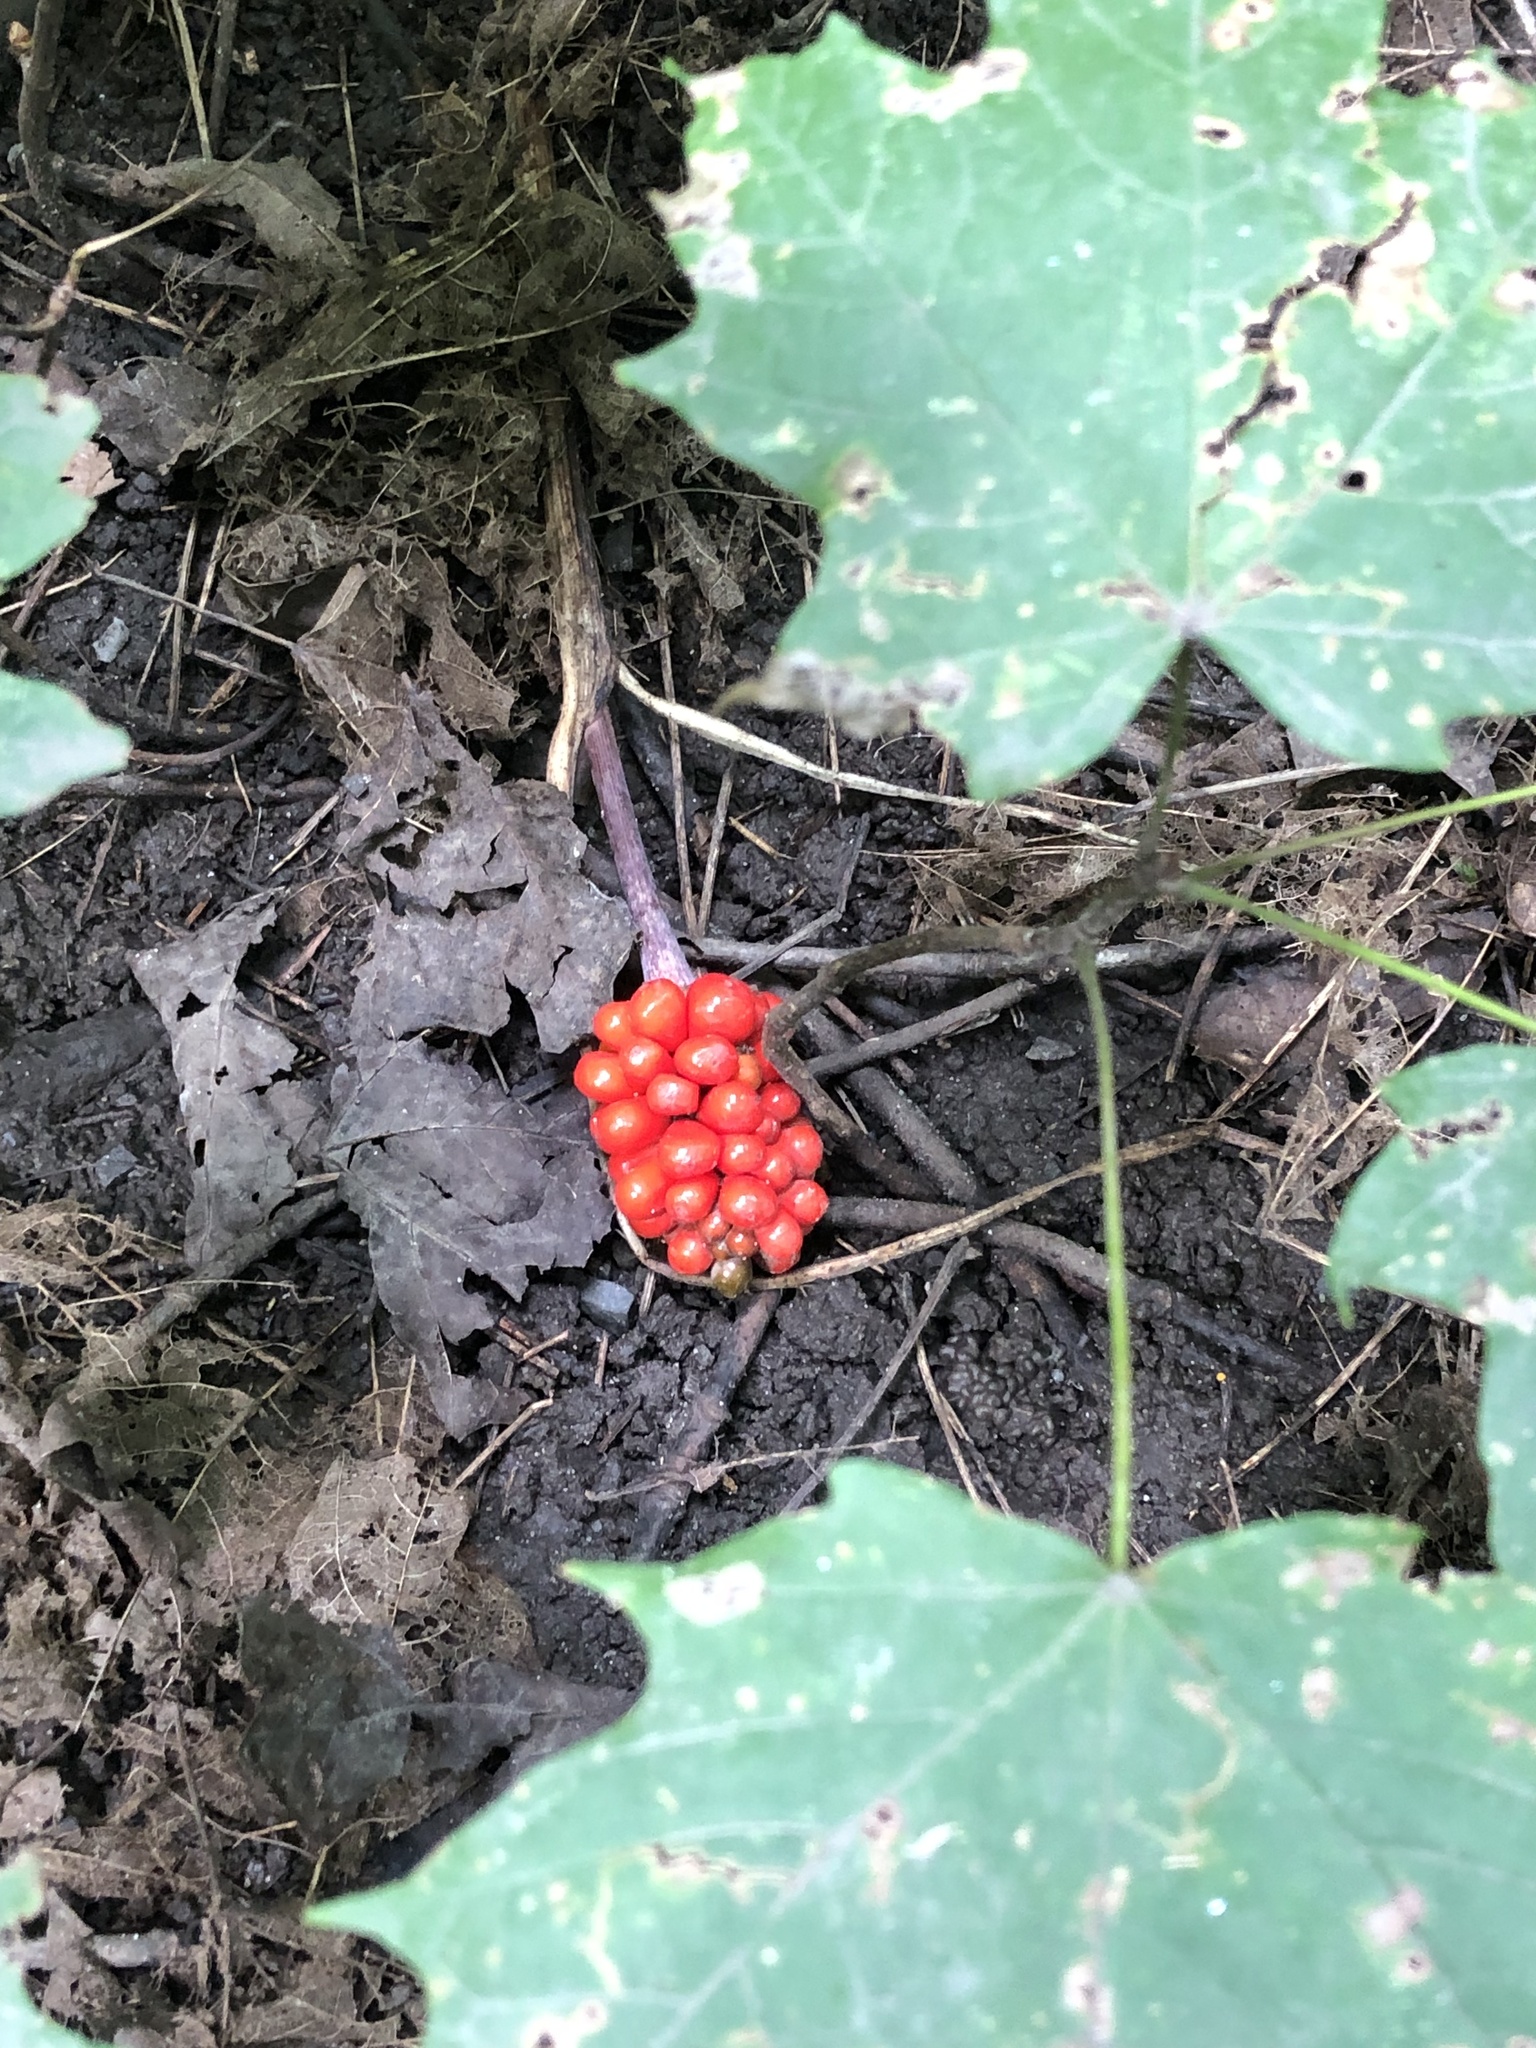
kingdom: Plantae
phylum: Tracheophyta
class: Liliopsida
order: Alismatales
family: Araceae
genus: Arisaema
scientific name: Arisaema triphyllum
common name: Jack-in-the-pulpit
